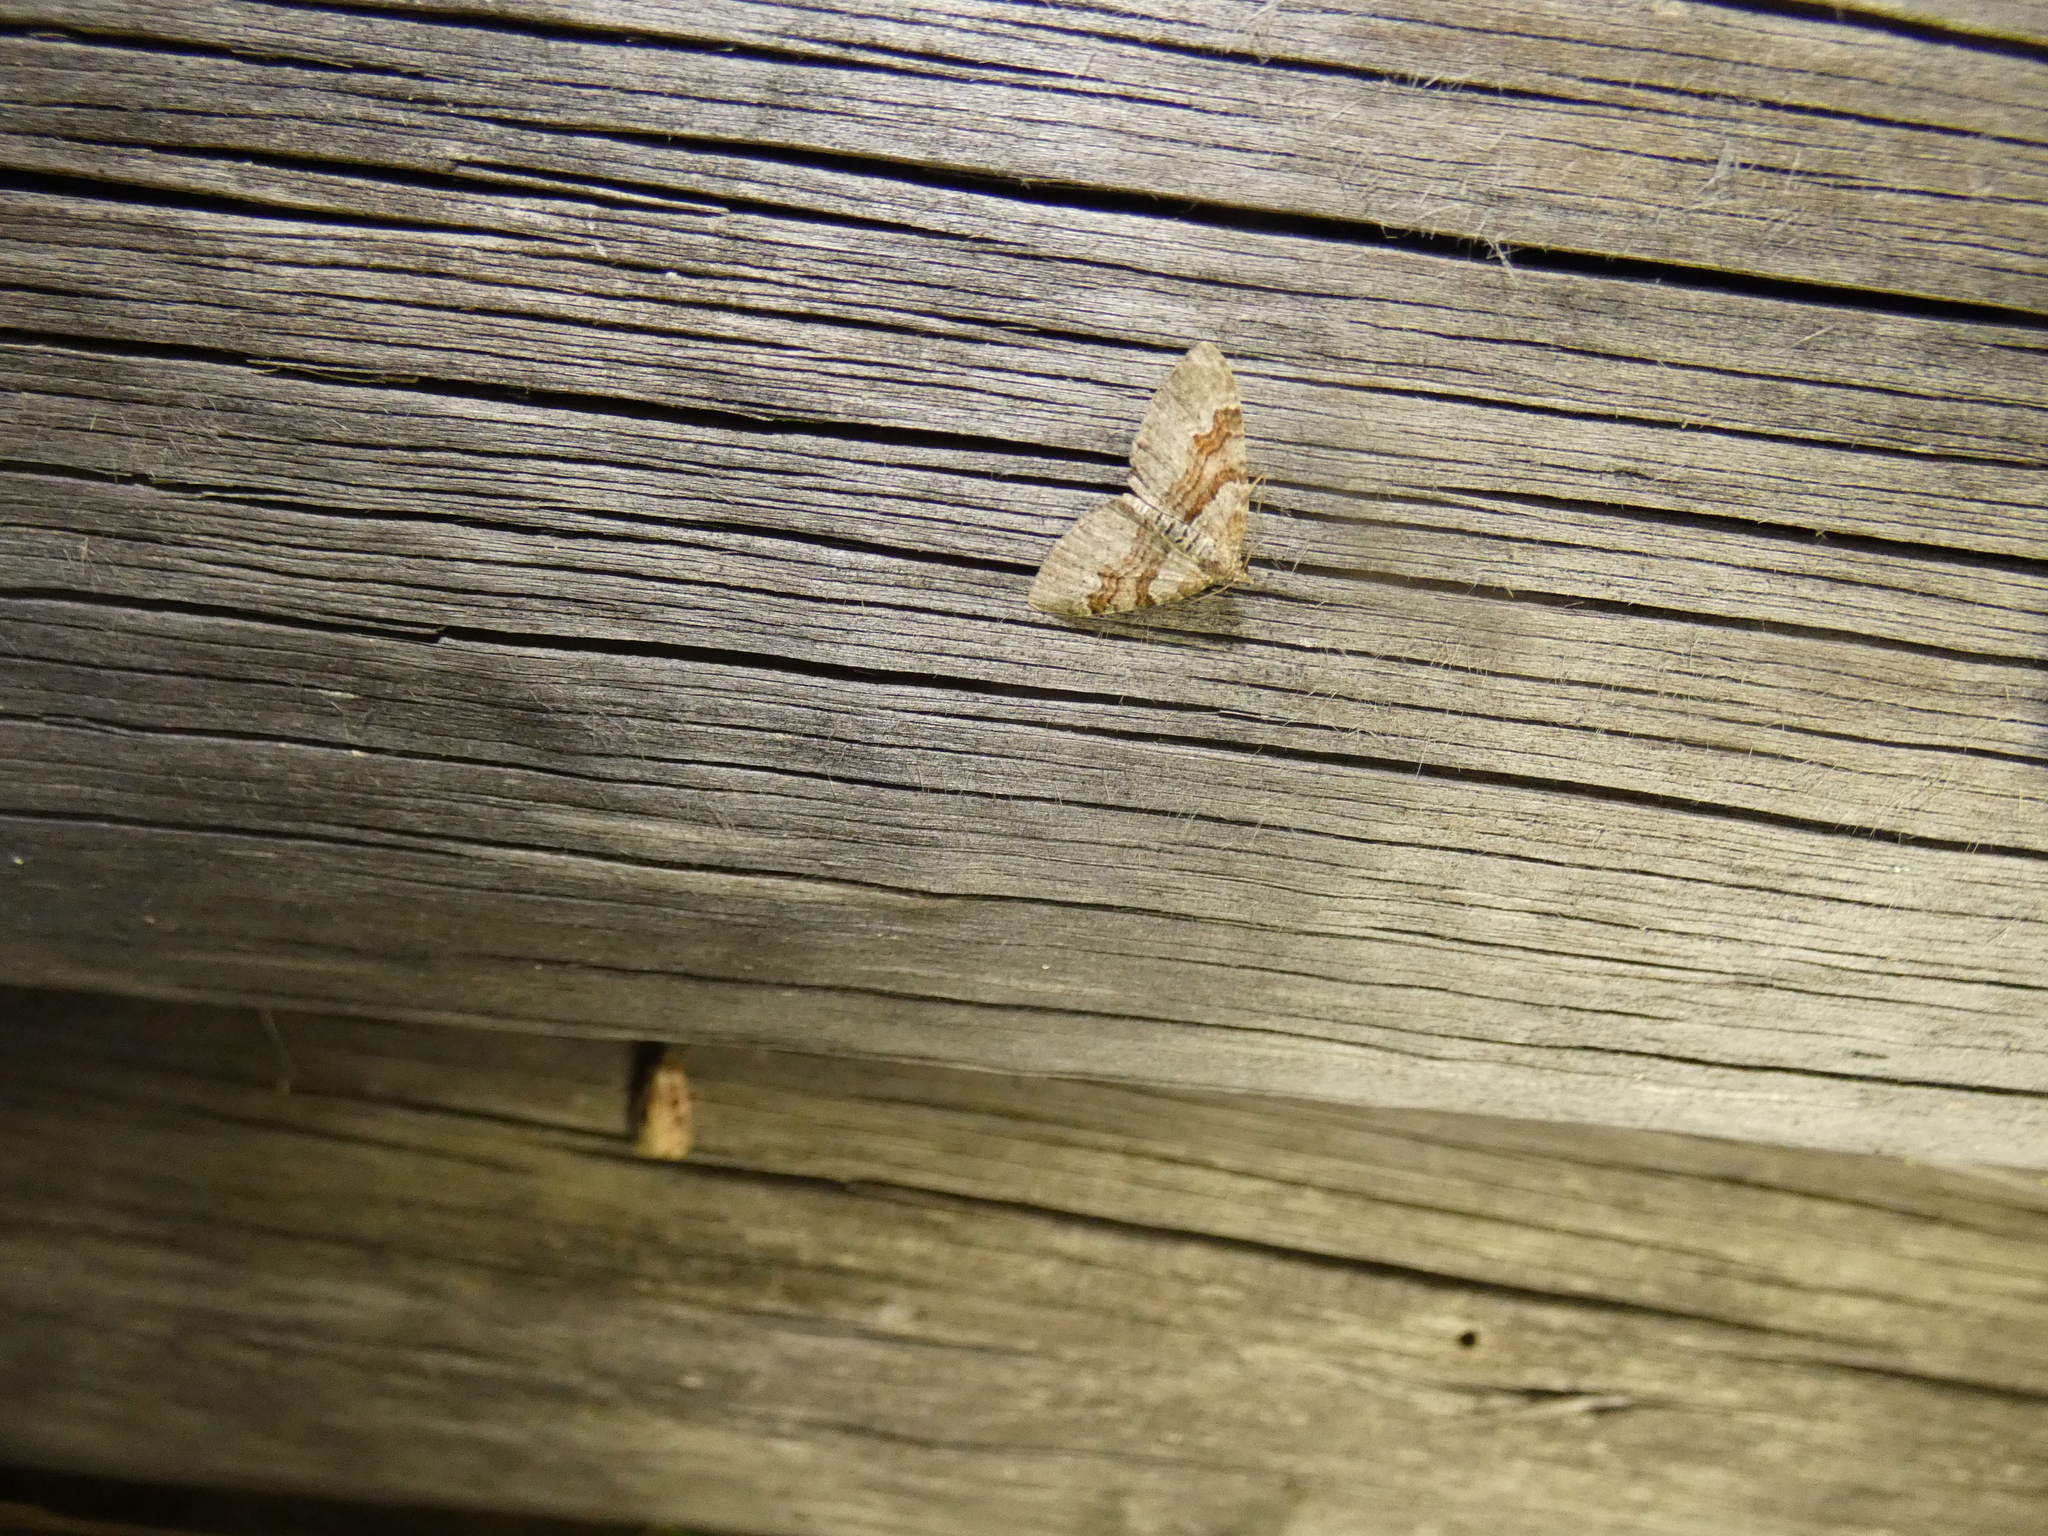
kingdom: Animalia
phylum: Arthropoda
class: Insecta
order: Lepidoptera
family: Geometridae
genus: Xanthorhoe
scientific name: Xanthorhoe designata
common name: Flame carpet
